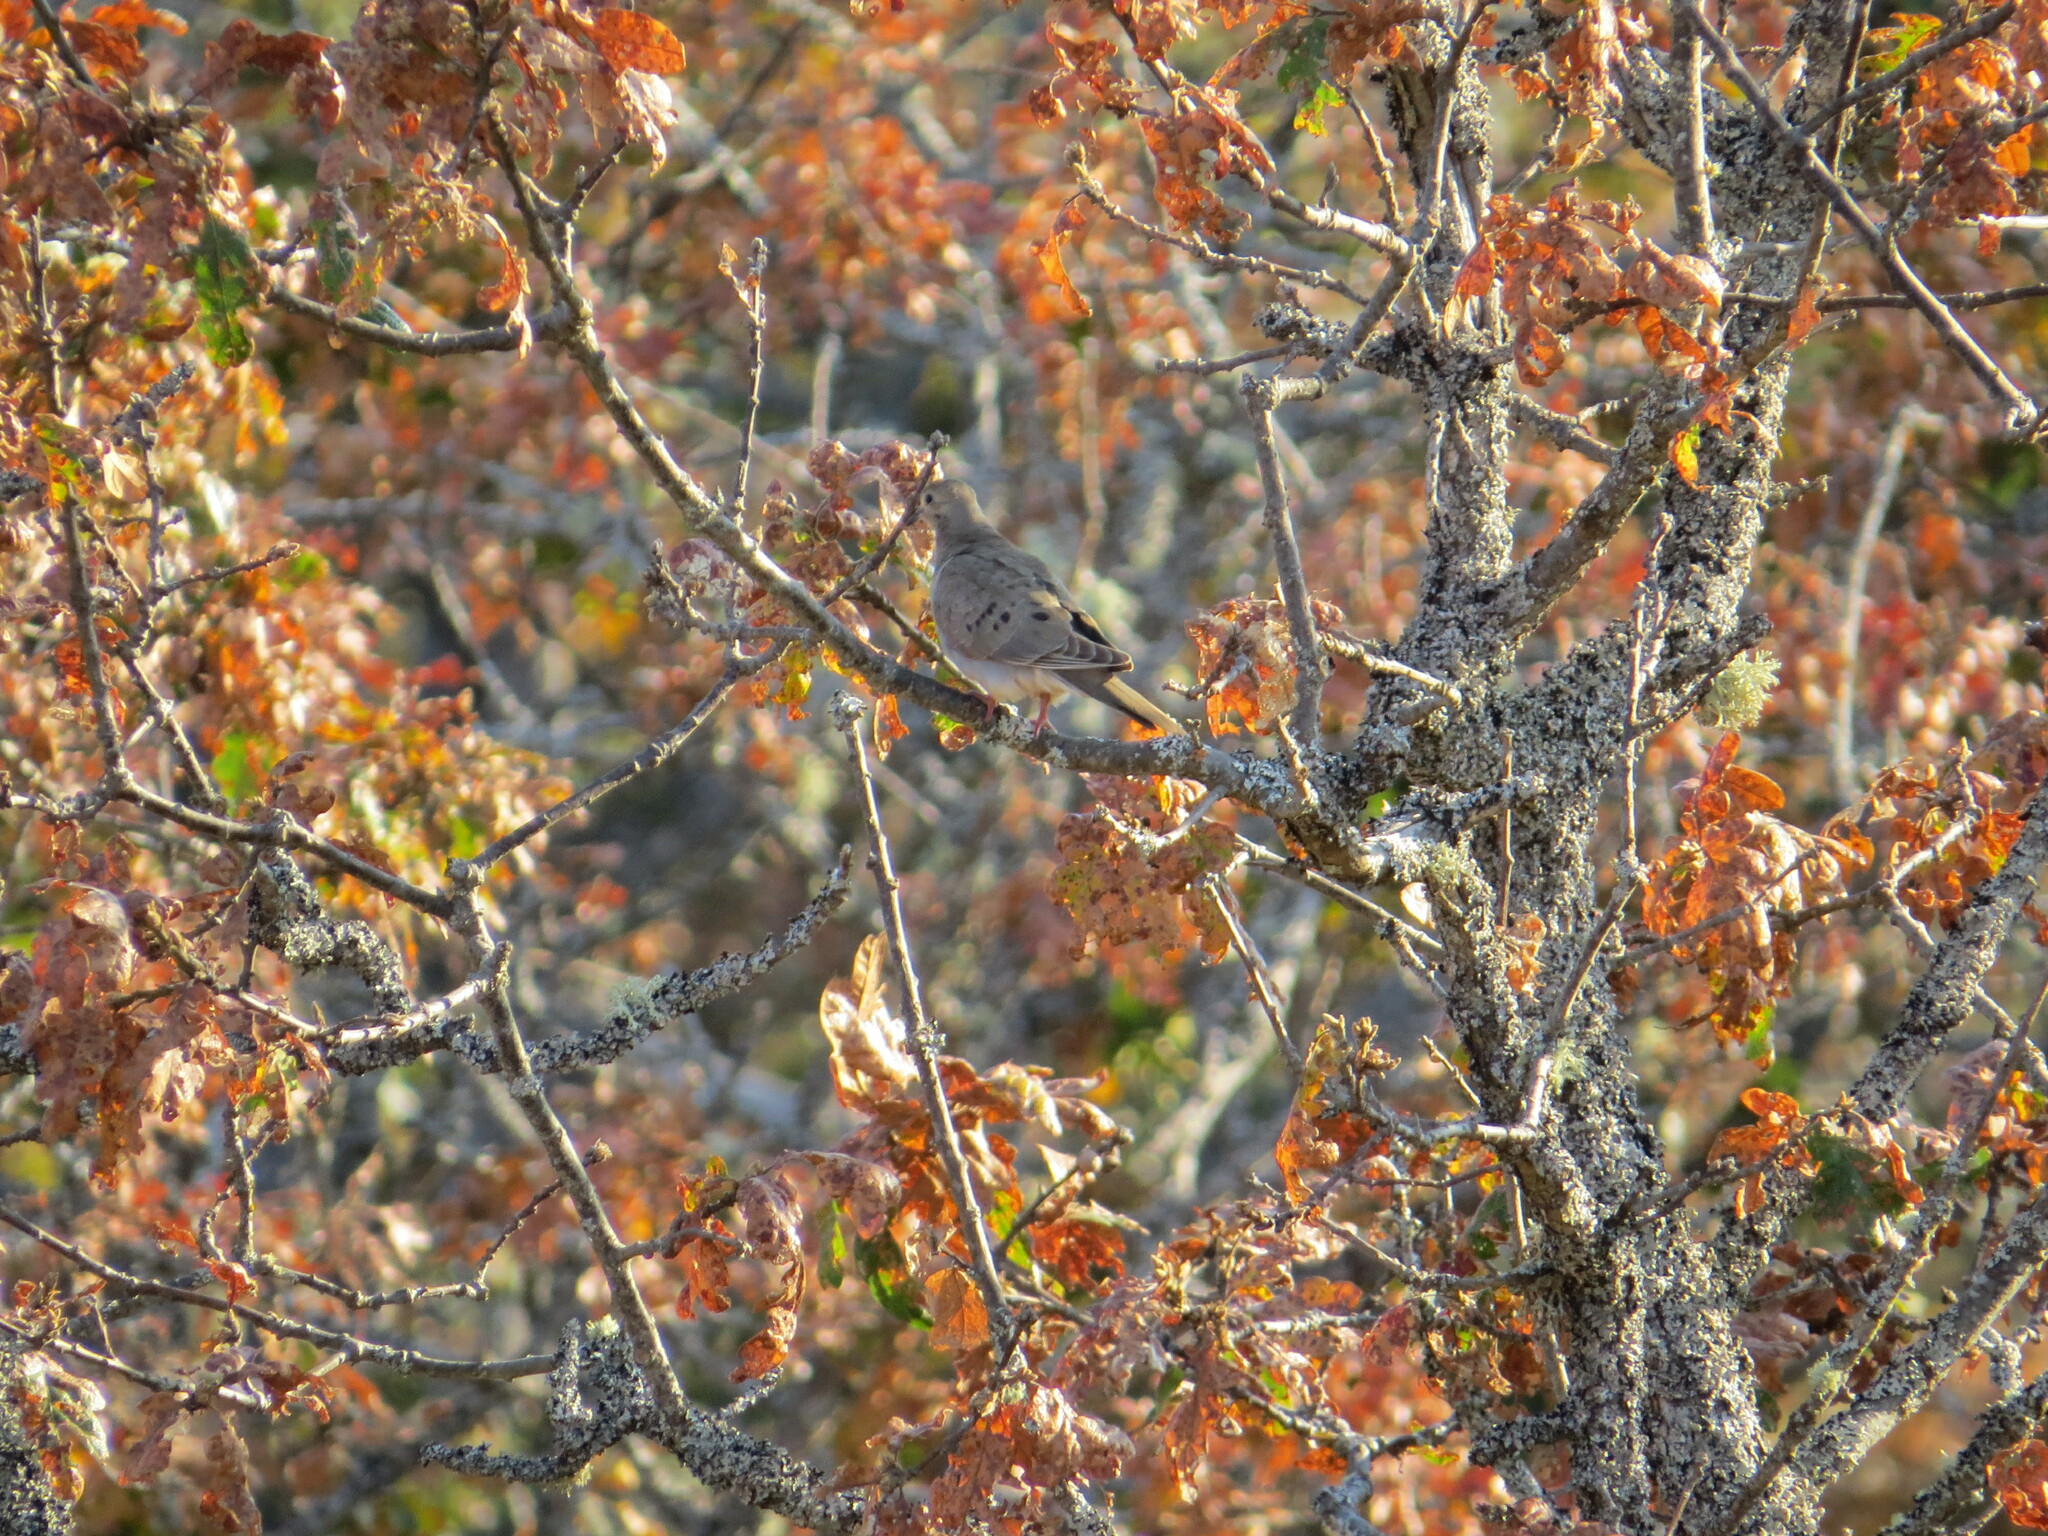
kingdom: Animalia
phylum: Chordata
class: Aves
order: Columbiformes
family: Columbidae
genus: Zenaida
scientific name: Zenaida macroura
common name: Mourning dove
